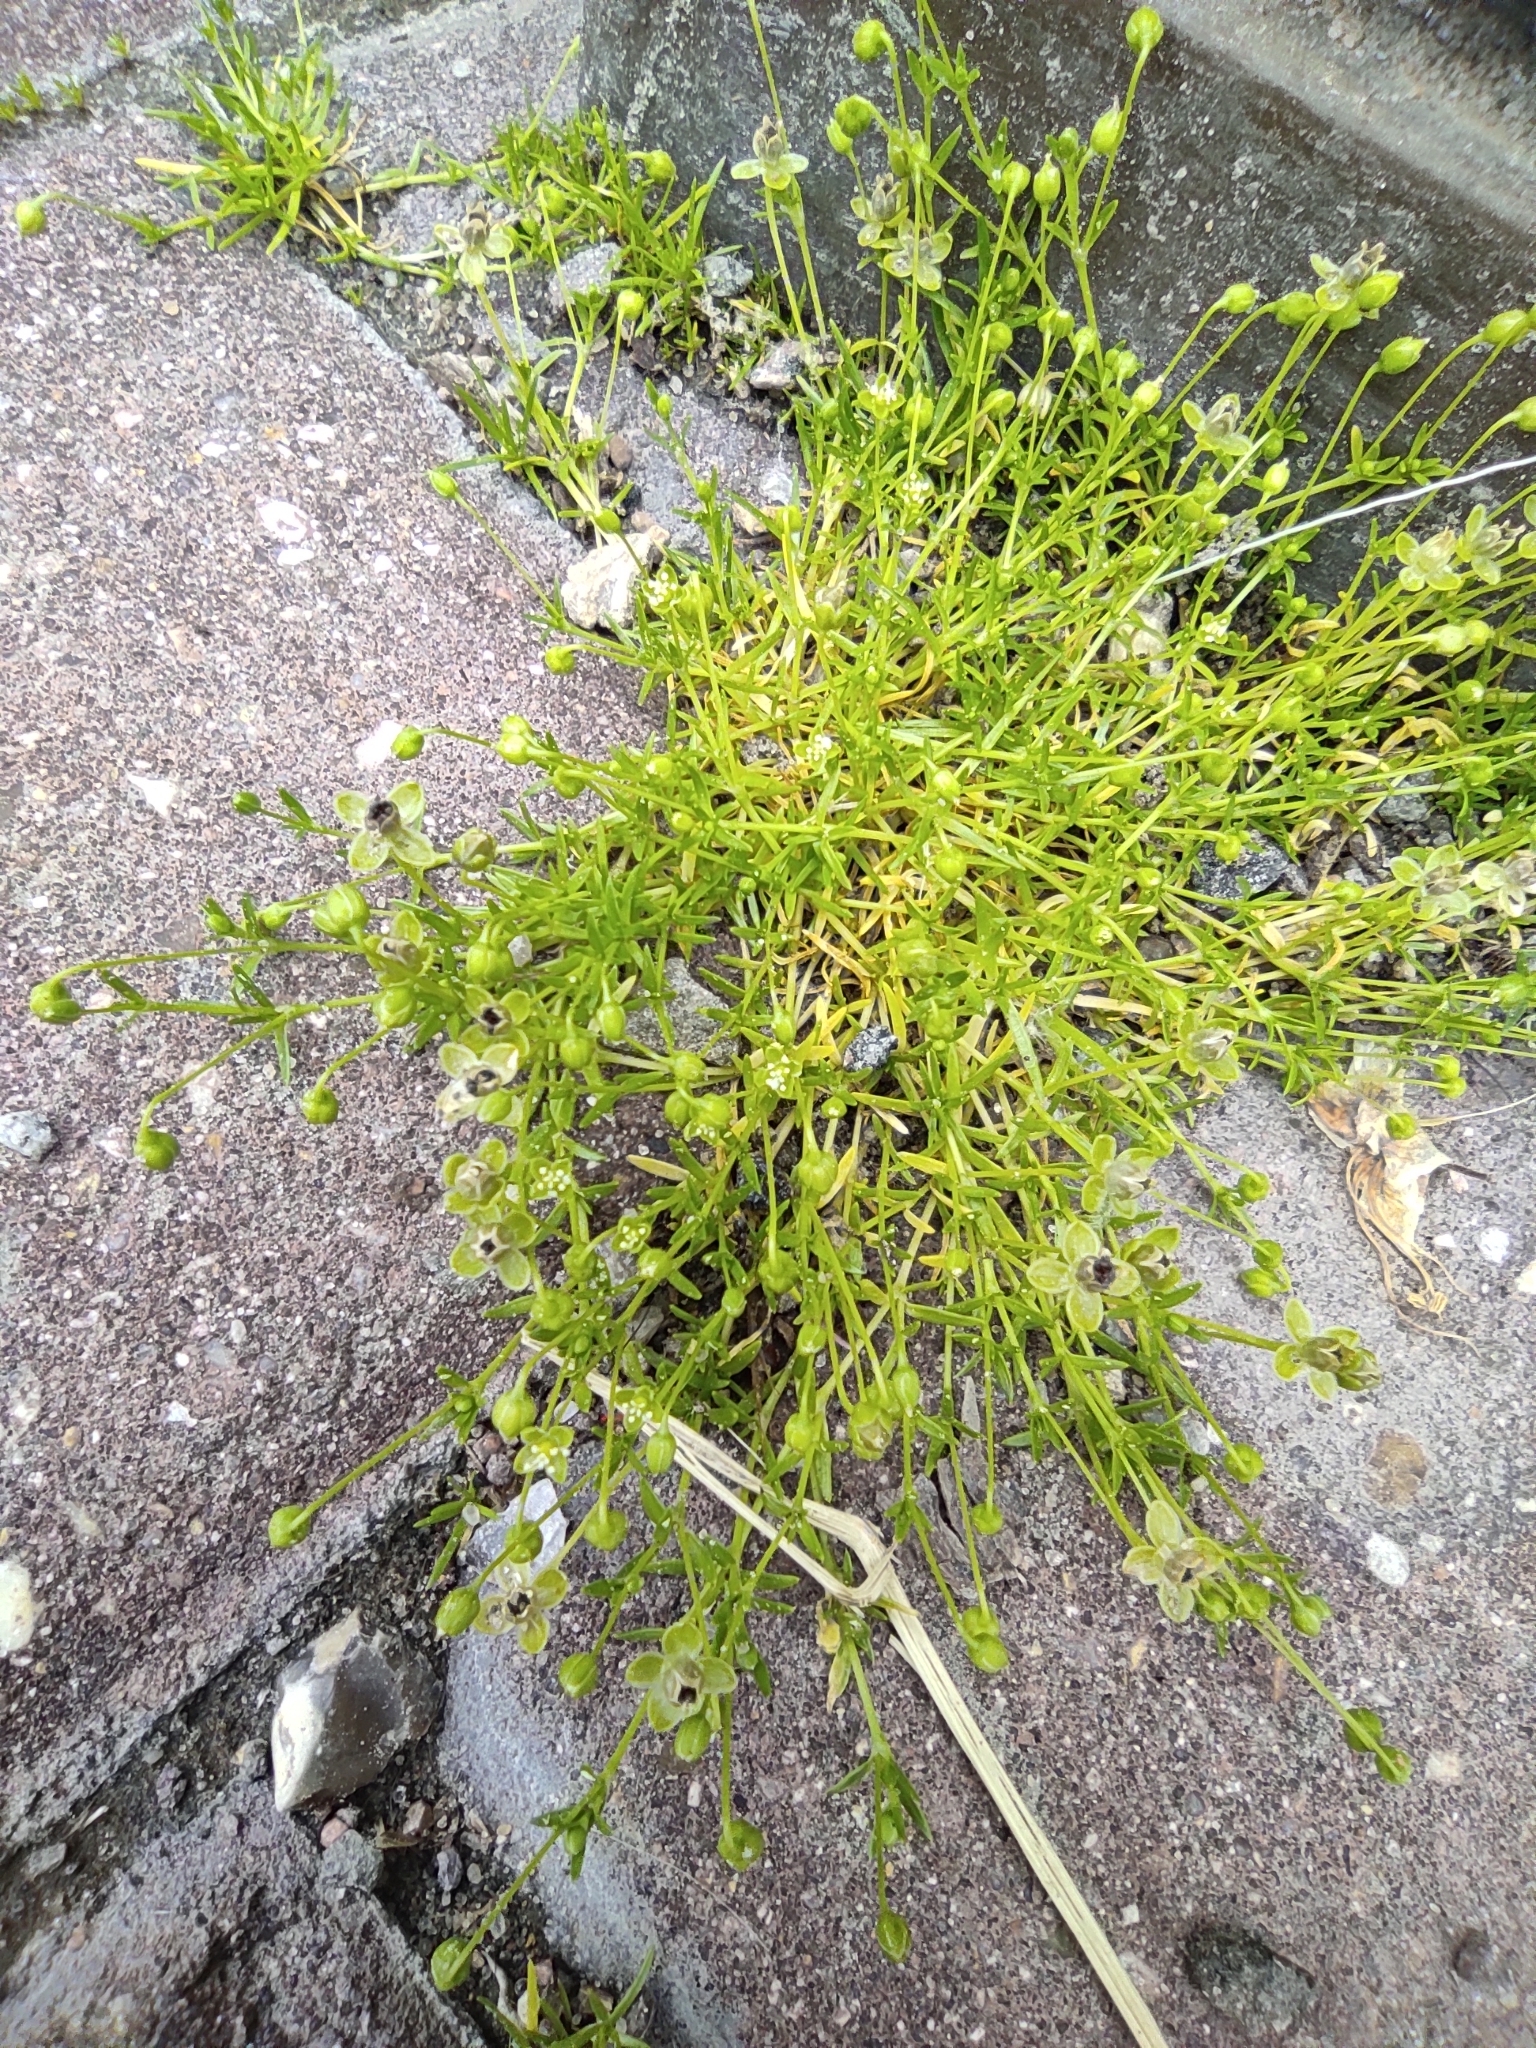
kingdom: Plantae
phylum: Tracheophyta
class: Magnoliopsida
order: Caryophyllales
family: Caryophyllaceae
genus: Sagina
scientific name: Sagina procumbens
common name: Procumbent pearlwort
